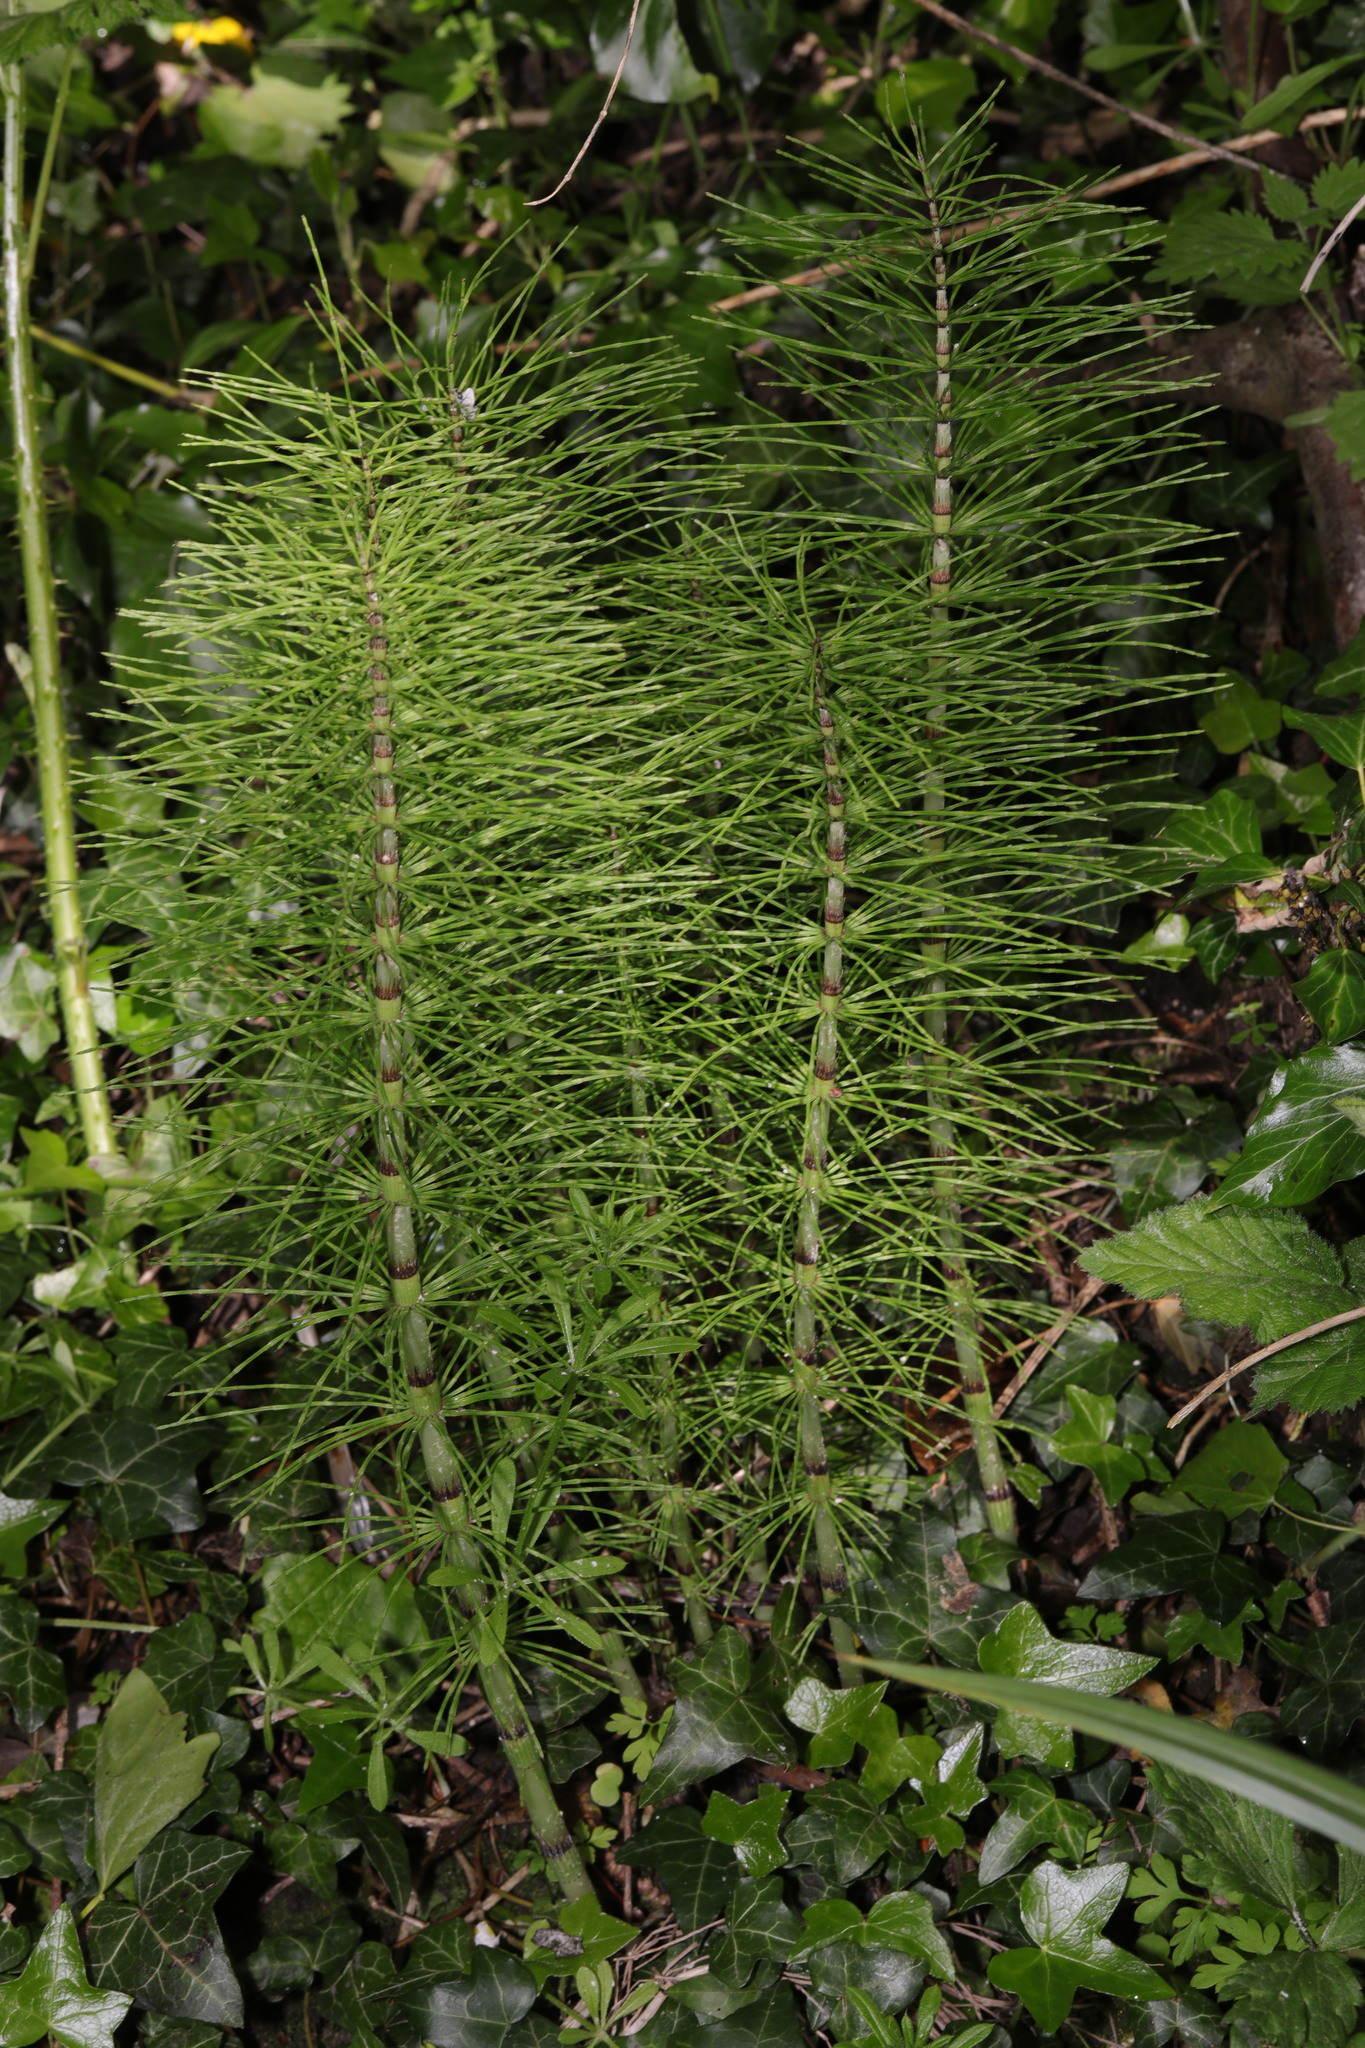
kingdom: Plantae
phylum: Tracheophyta
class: Polypodiopsida
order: Equisetales
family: Equisetaceae
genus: Equisetum
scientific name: Equisetum telmateia
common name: Great horsetail
